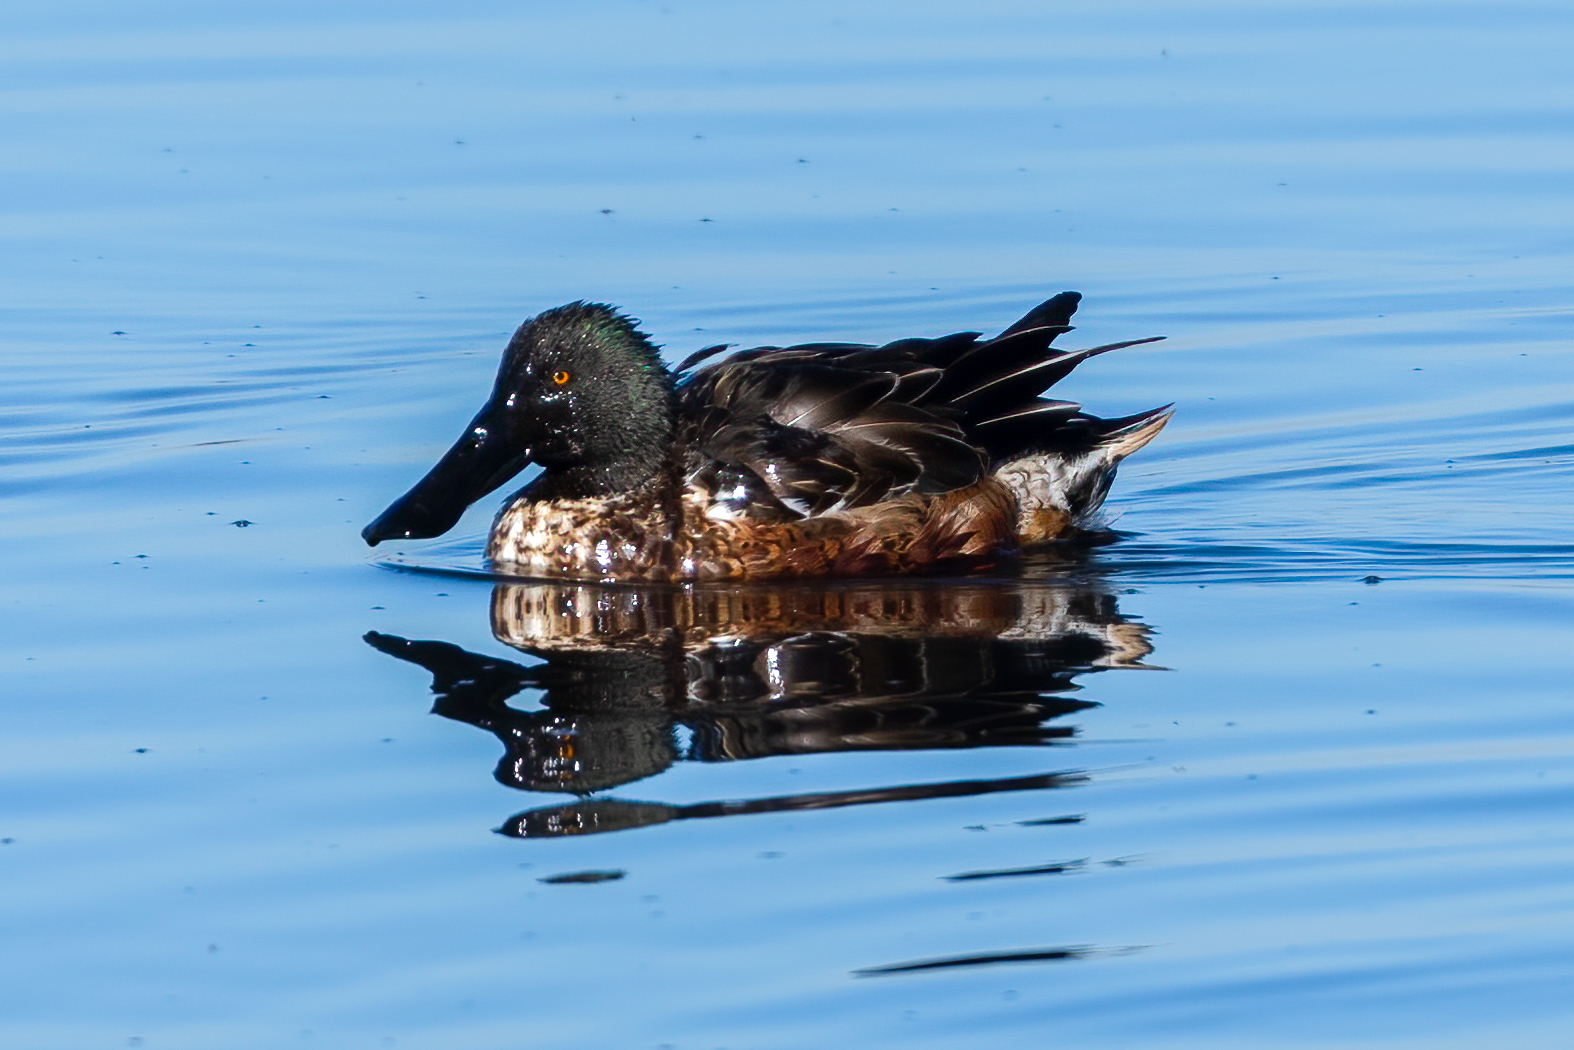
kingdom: Animalia
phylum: Chordata
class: Aves
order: Anseriformes
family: Anatidae
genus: Spatula
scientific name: Spatula clypeata
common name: Northern shoveler
